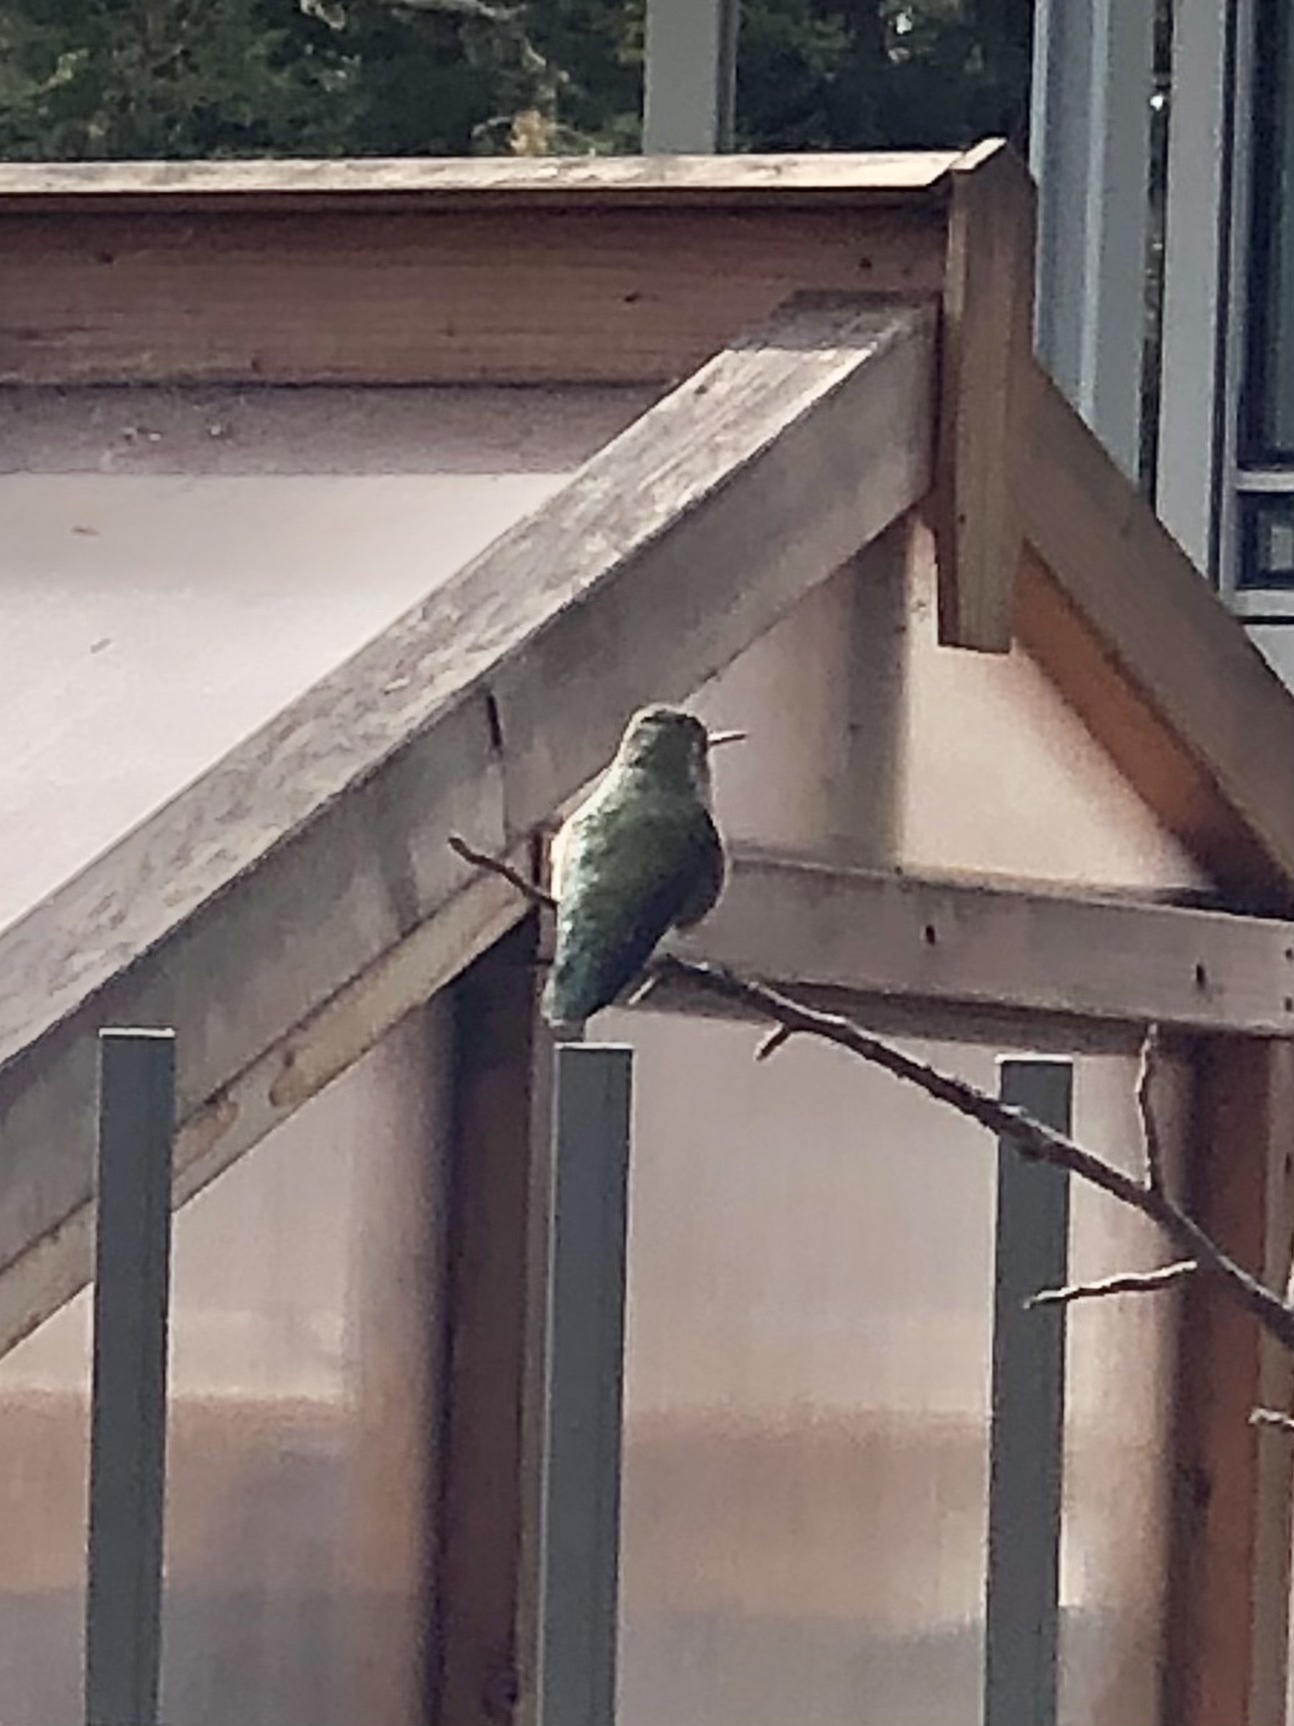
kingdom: Animalia
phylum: Chordata
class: Aves
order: Apodiformes
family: Trochilidae
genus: Calypte
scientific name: Calypte anna
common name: Anna's hummingbird
